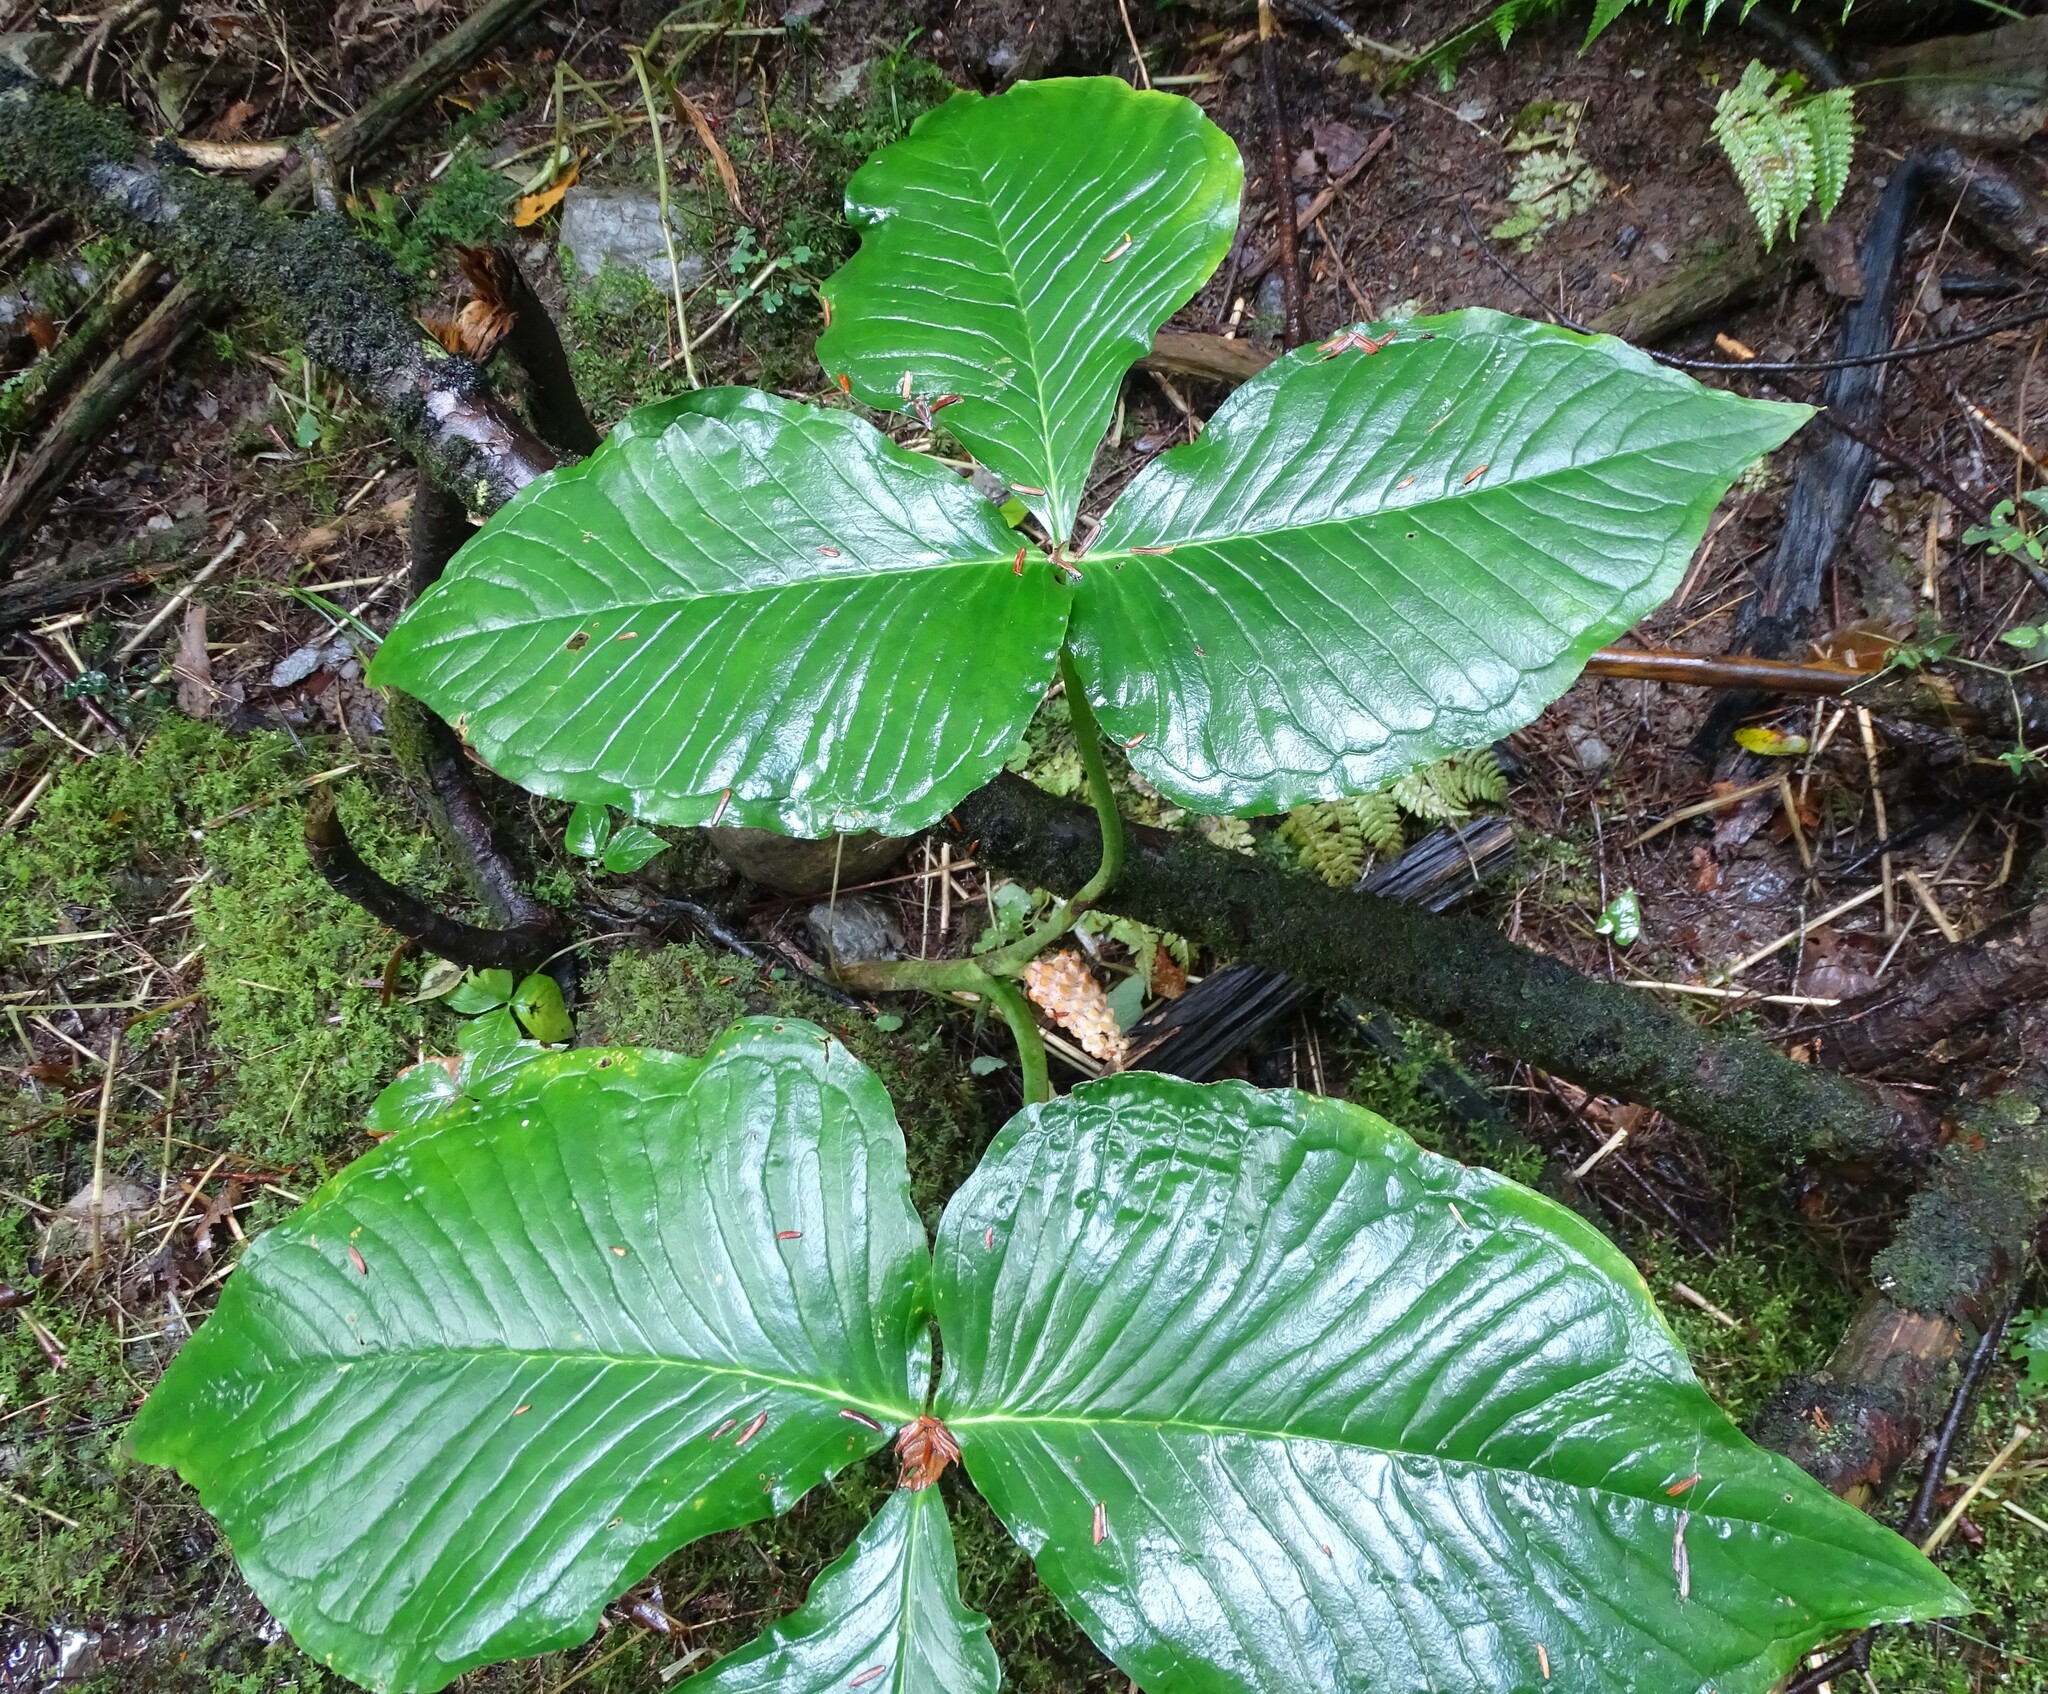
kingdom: Plantae
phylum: Tracheophyta
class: Liliopsida
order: Alismatales
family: Araceae
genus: Arisaema
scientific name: Arisaema triphyllum
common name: Jack-in-the-pulpit
